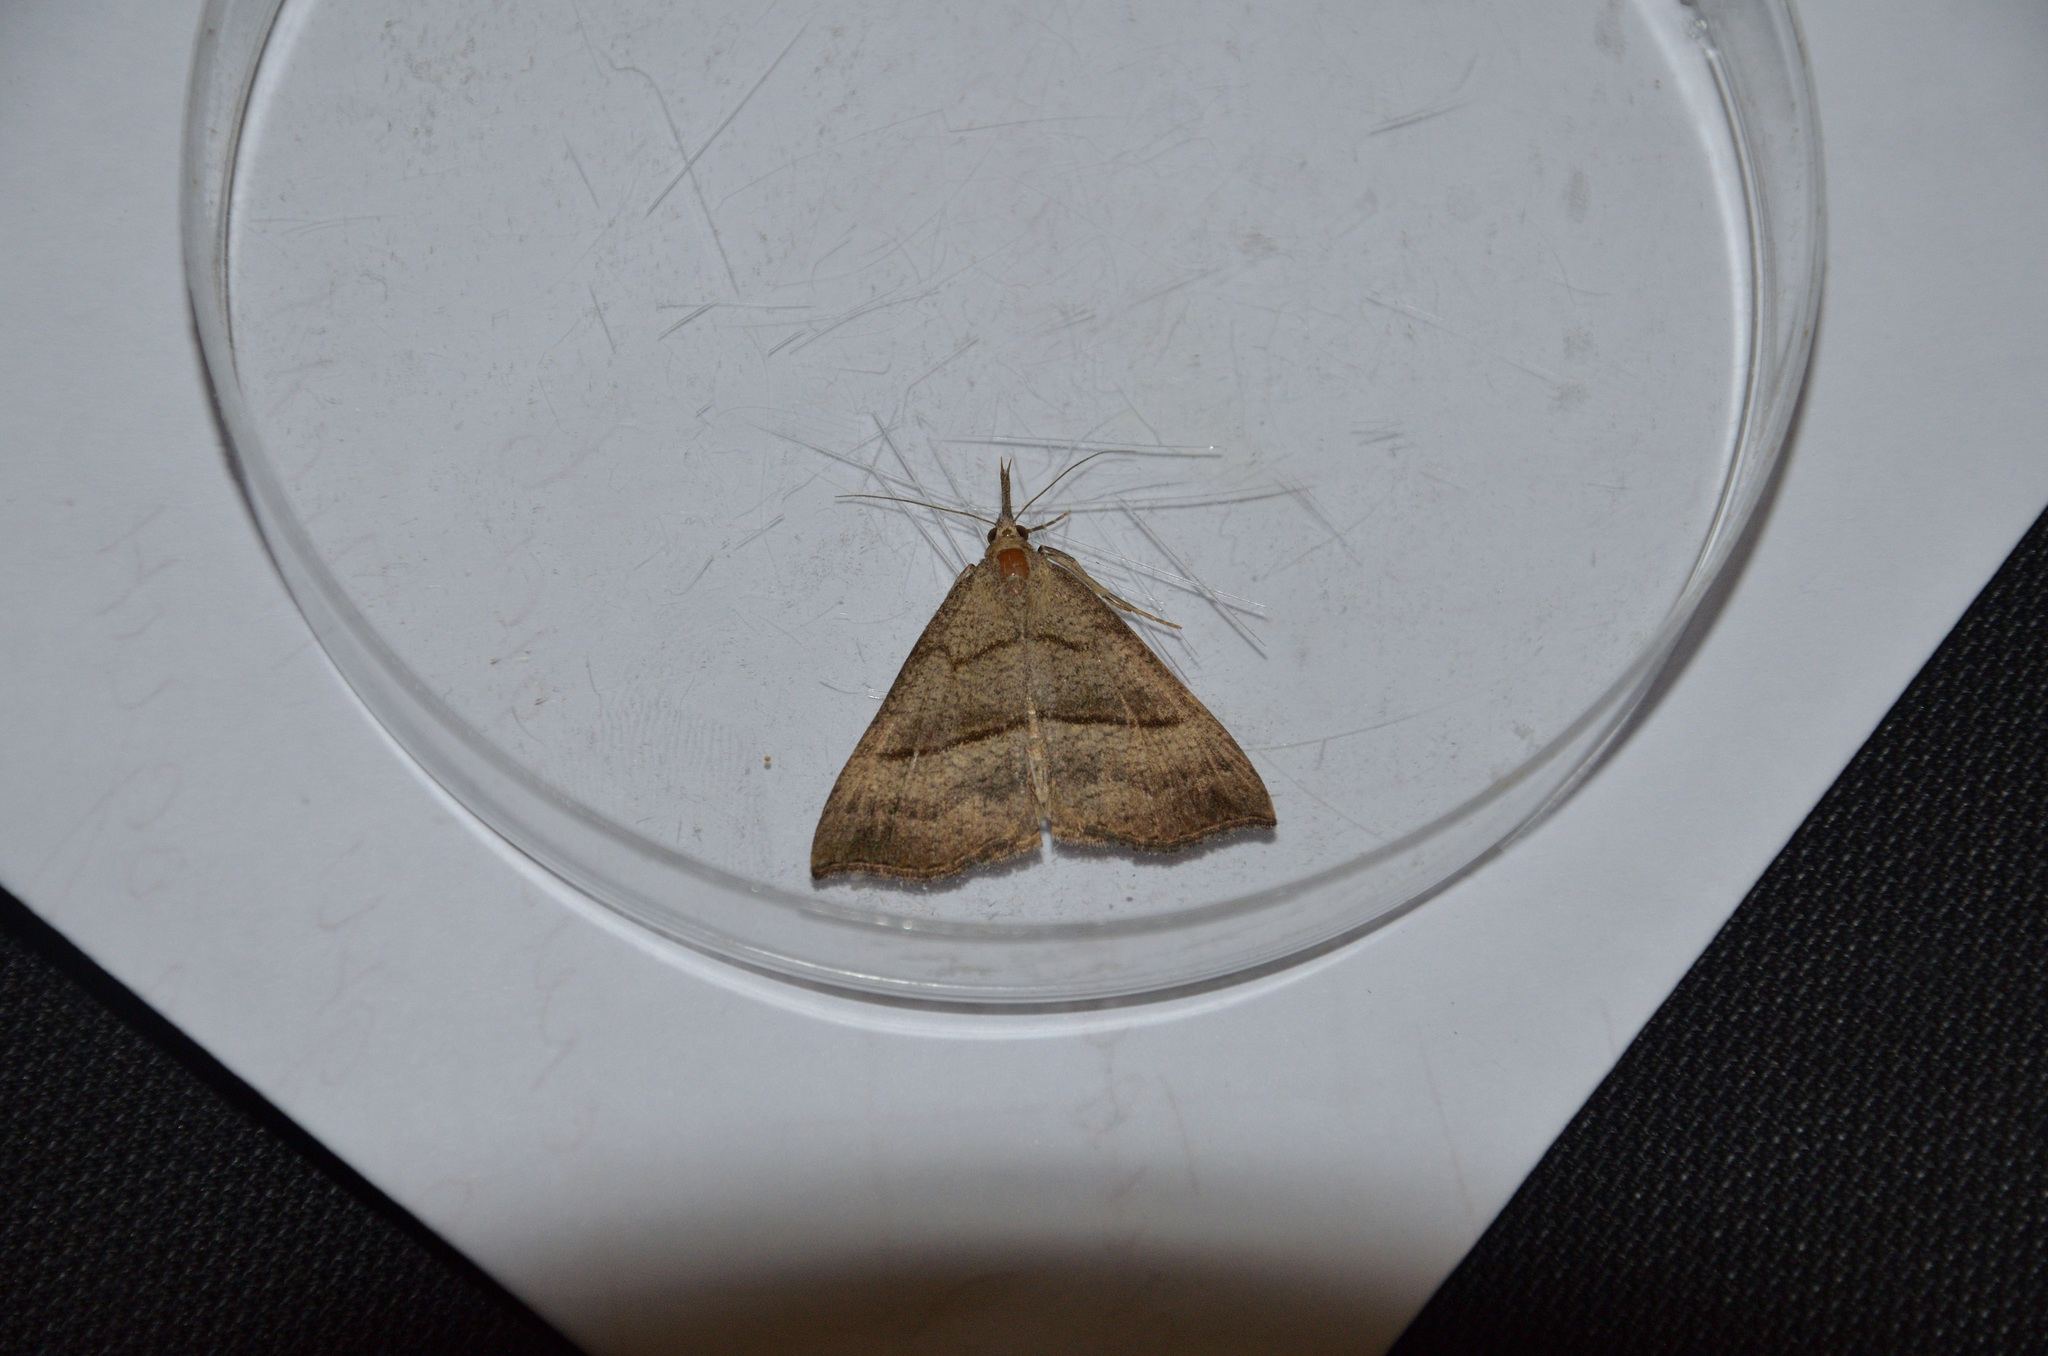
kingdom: Animalia
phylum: Arthropoda
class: Insecta
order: Lepidoptera
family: Erebidae
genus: Hypena
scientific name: Hypena proboscidalis
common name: Snout
